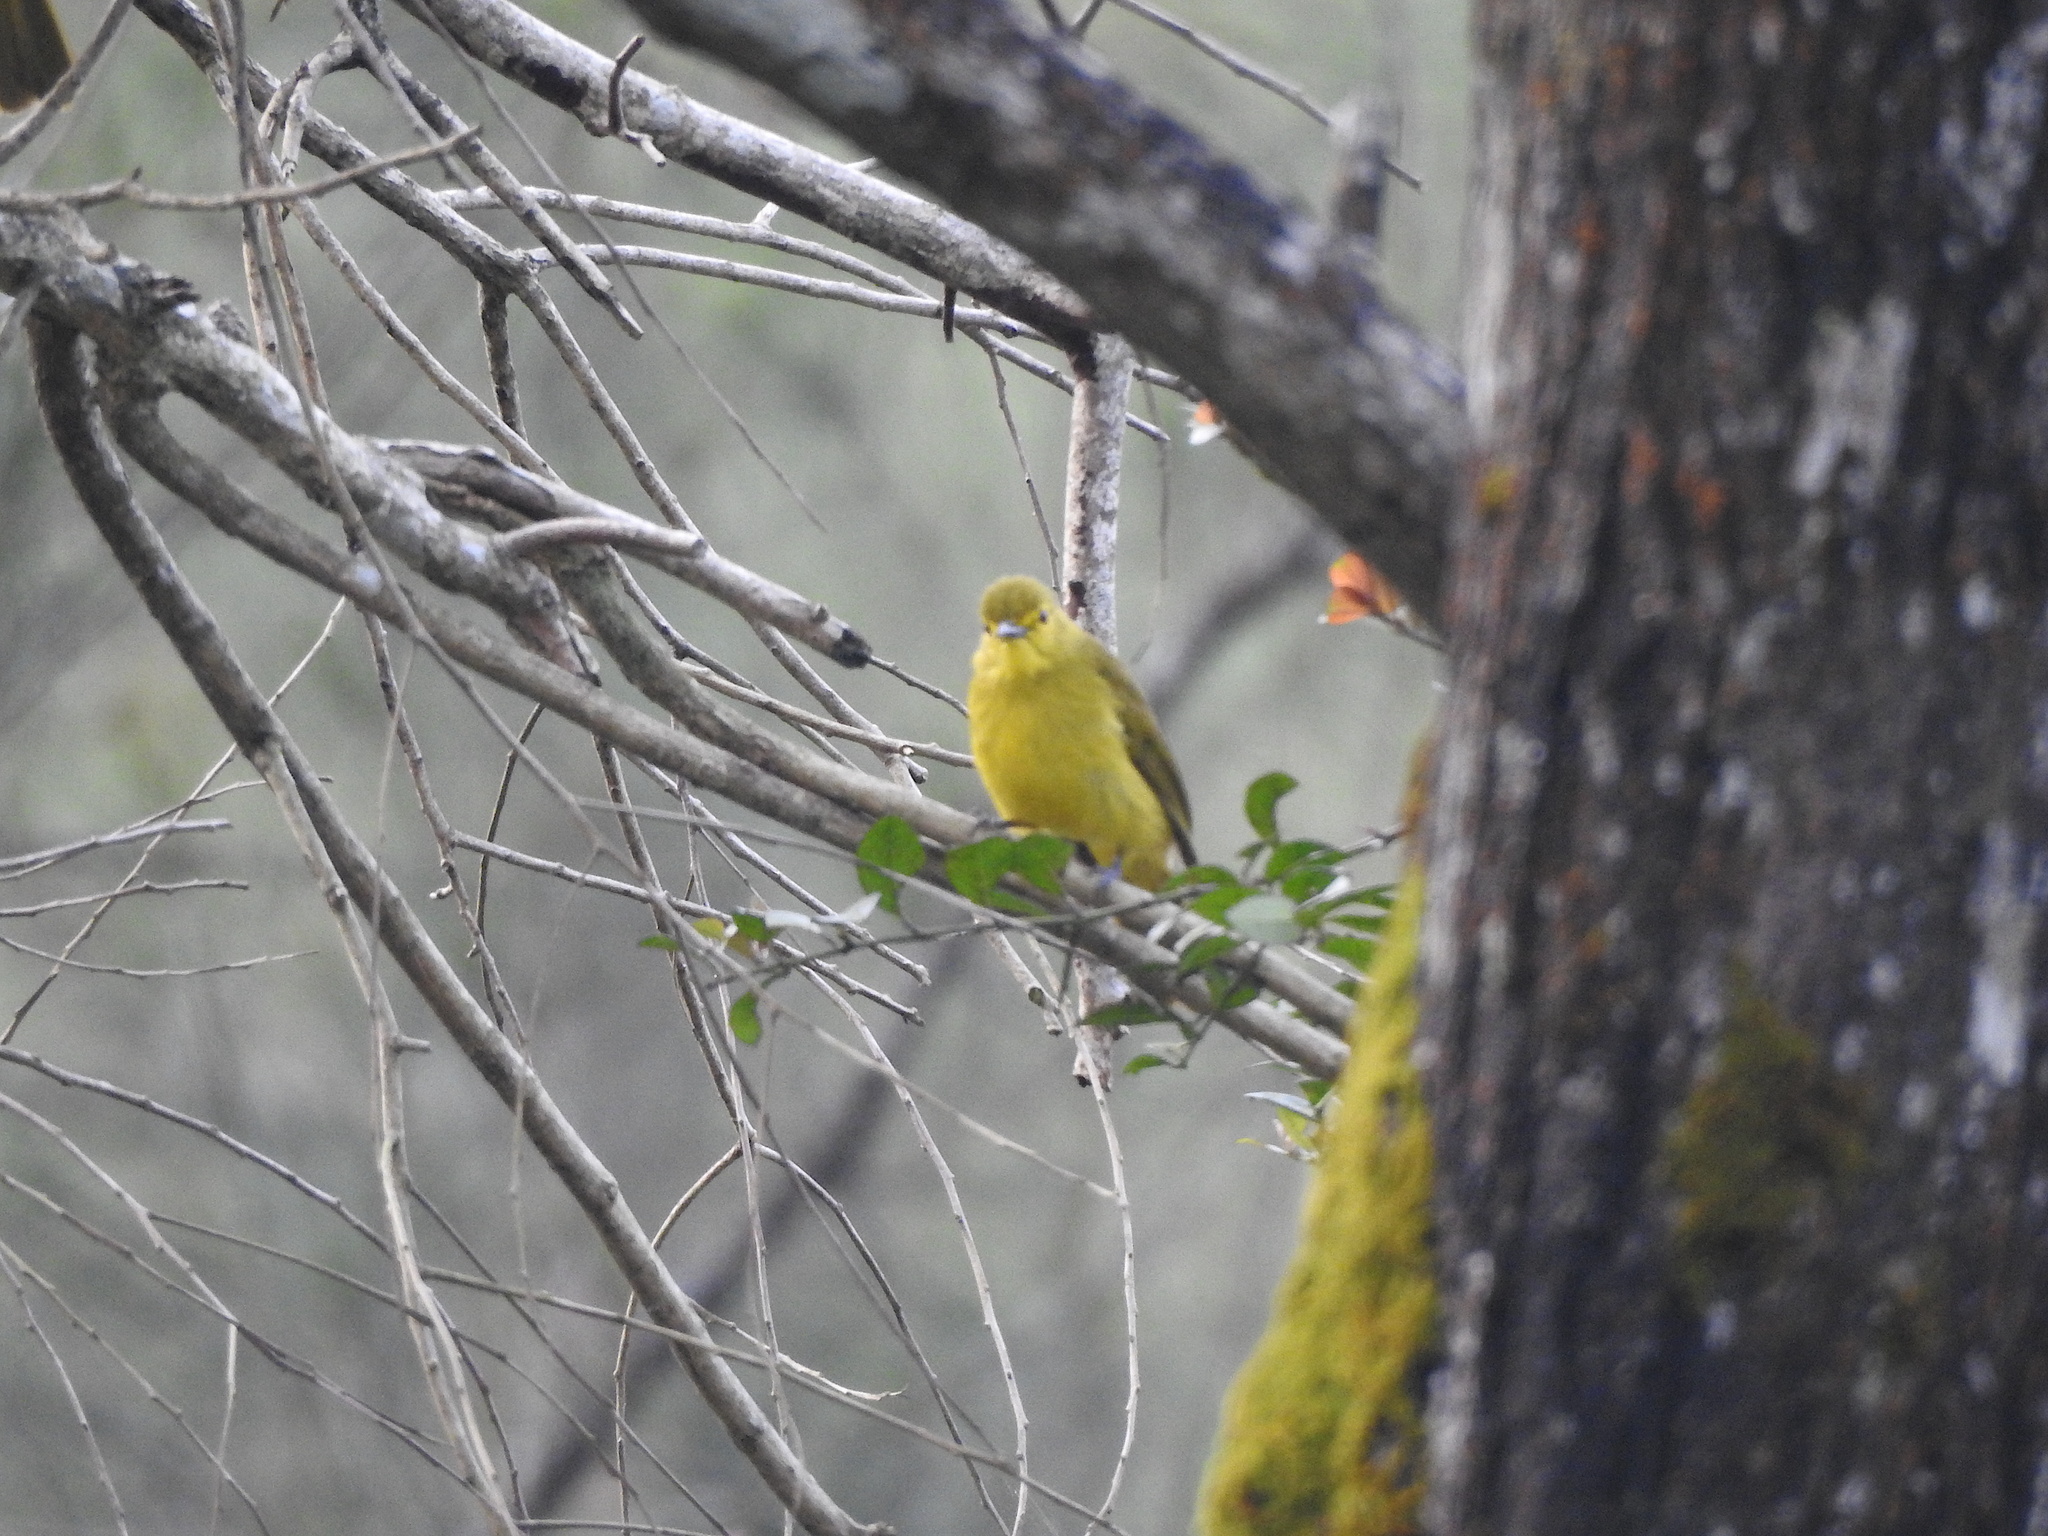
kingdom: Animalia
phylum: Chordata
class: Aves
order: Passeriformes
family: Pycnonotidae
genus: Acritillas
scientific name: Acritillas indica
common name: Yellow-browed bulbul
